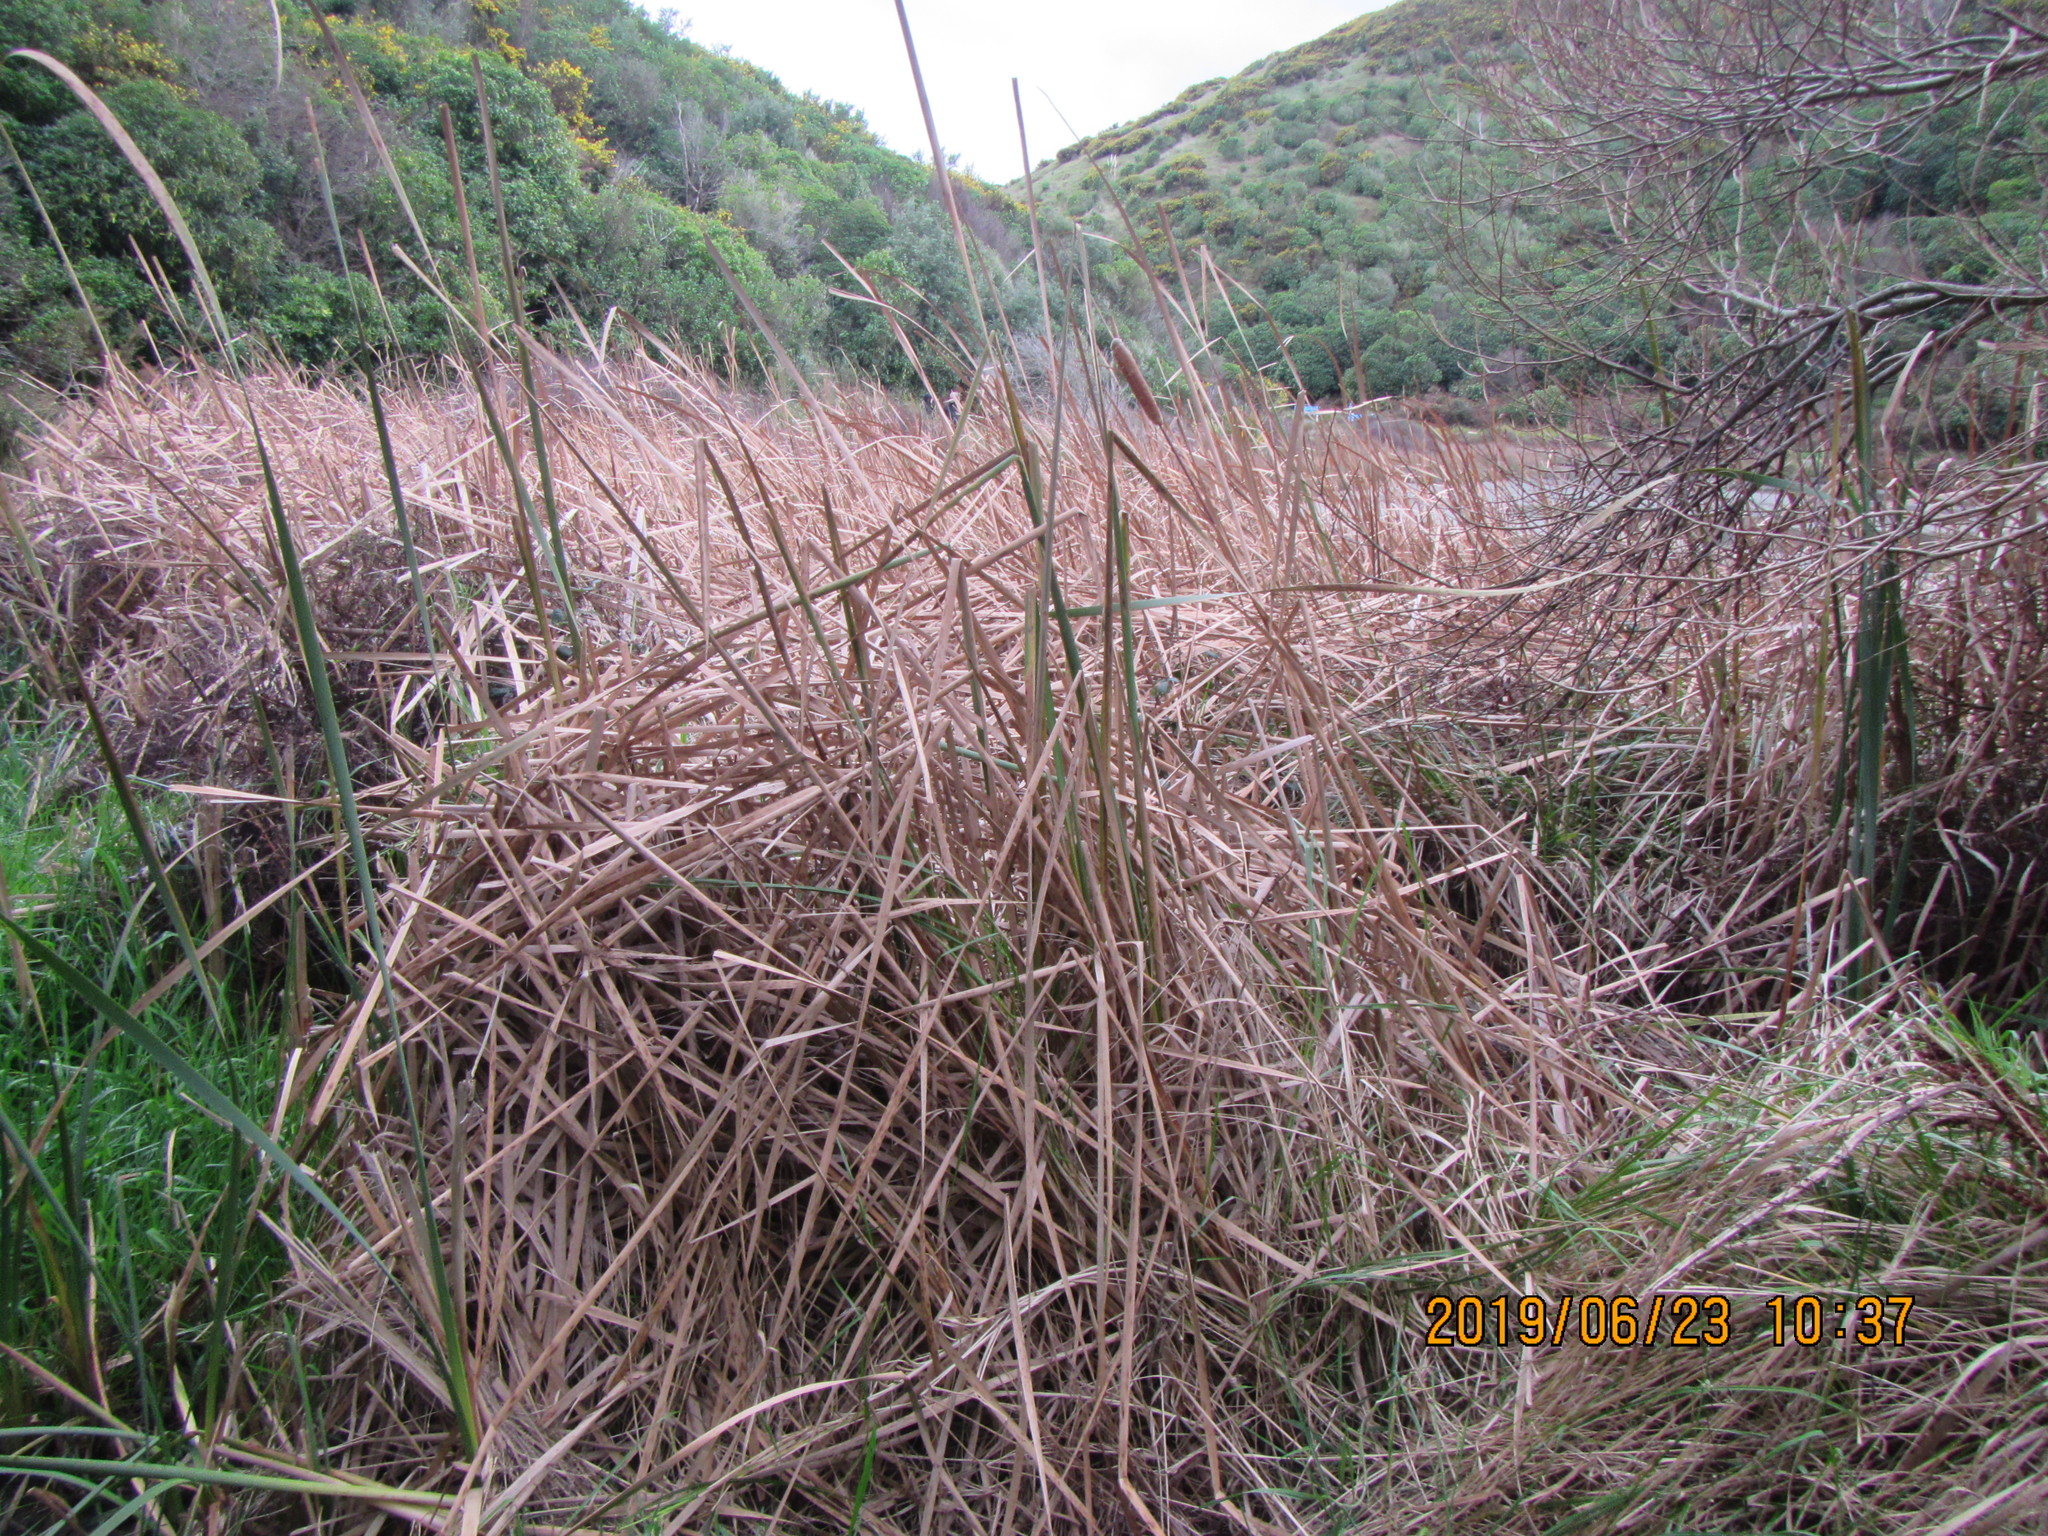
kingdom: Plantae
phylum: Tracheophyta
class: Liliopsida
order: Poales
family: Typhaceae
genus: Typha
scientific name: Typha orientalis
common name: Bullrush
